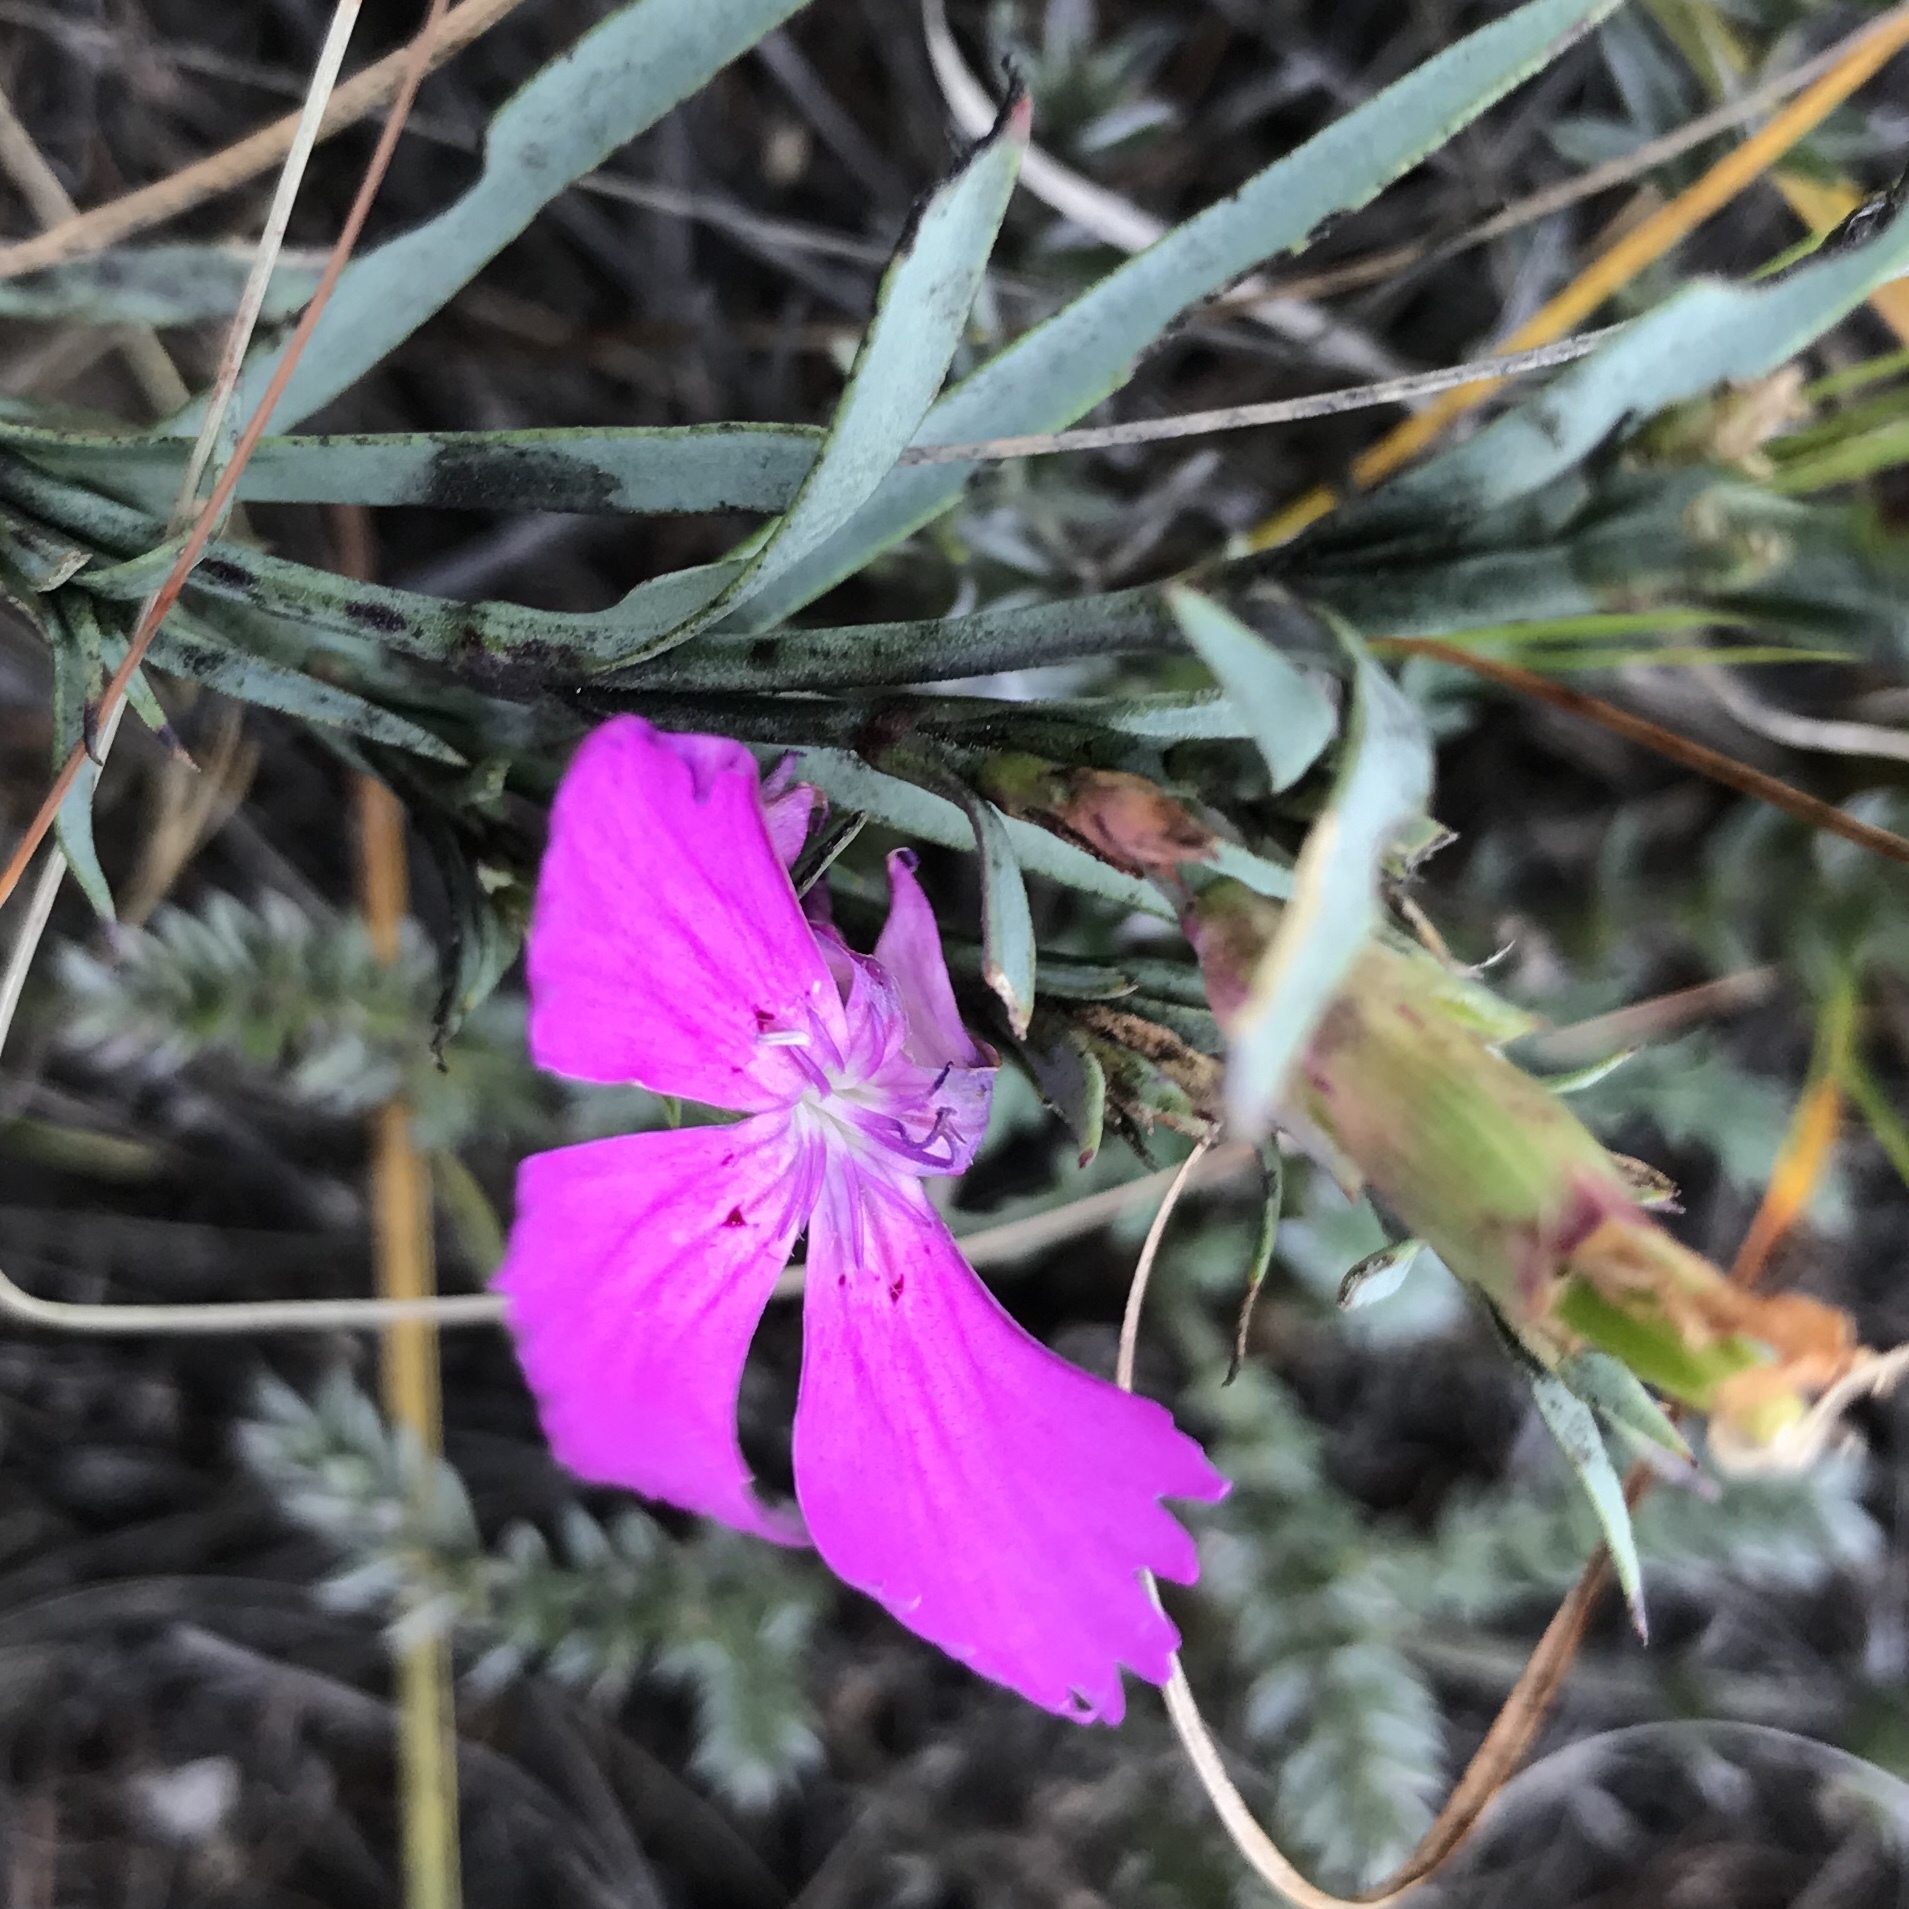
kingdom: Plantae
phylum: Tracheophyta
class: Magnoliopsida
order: Caryophyllales
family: Caryophyllaceae
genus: Dianthus
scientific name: Dianthus chinensis
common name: Rainbow pink
